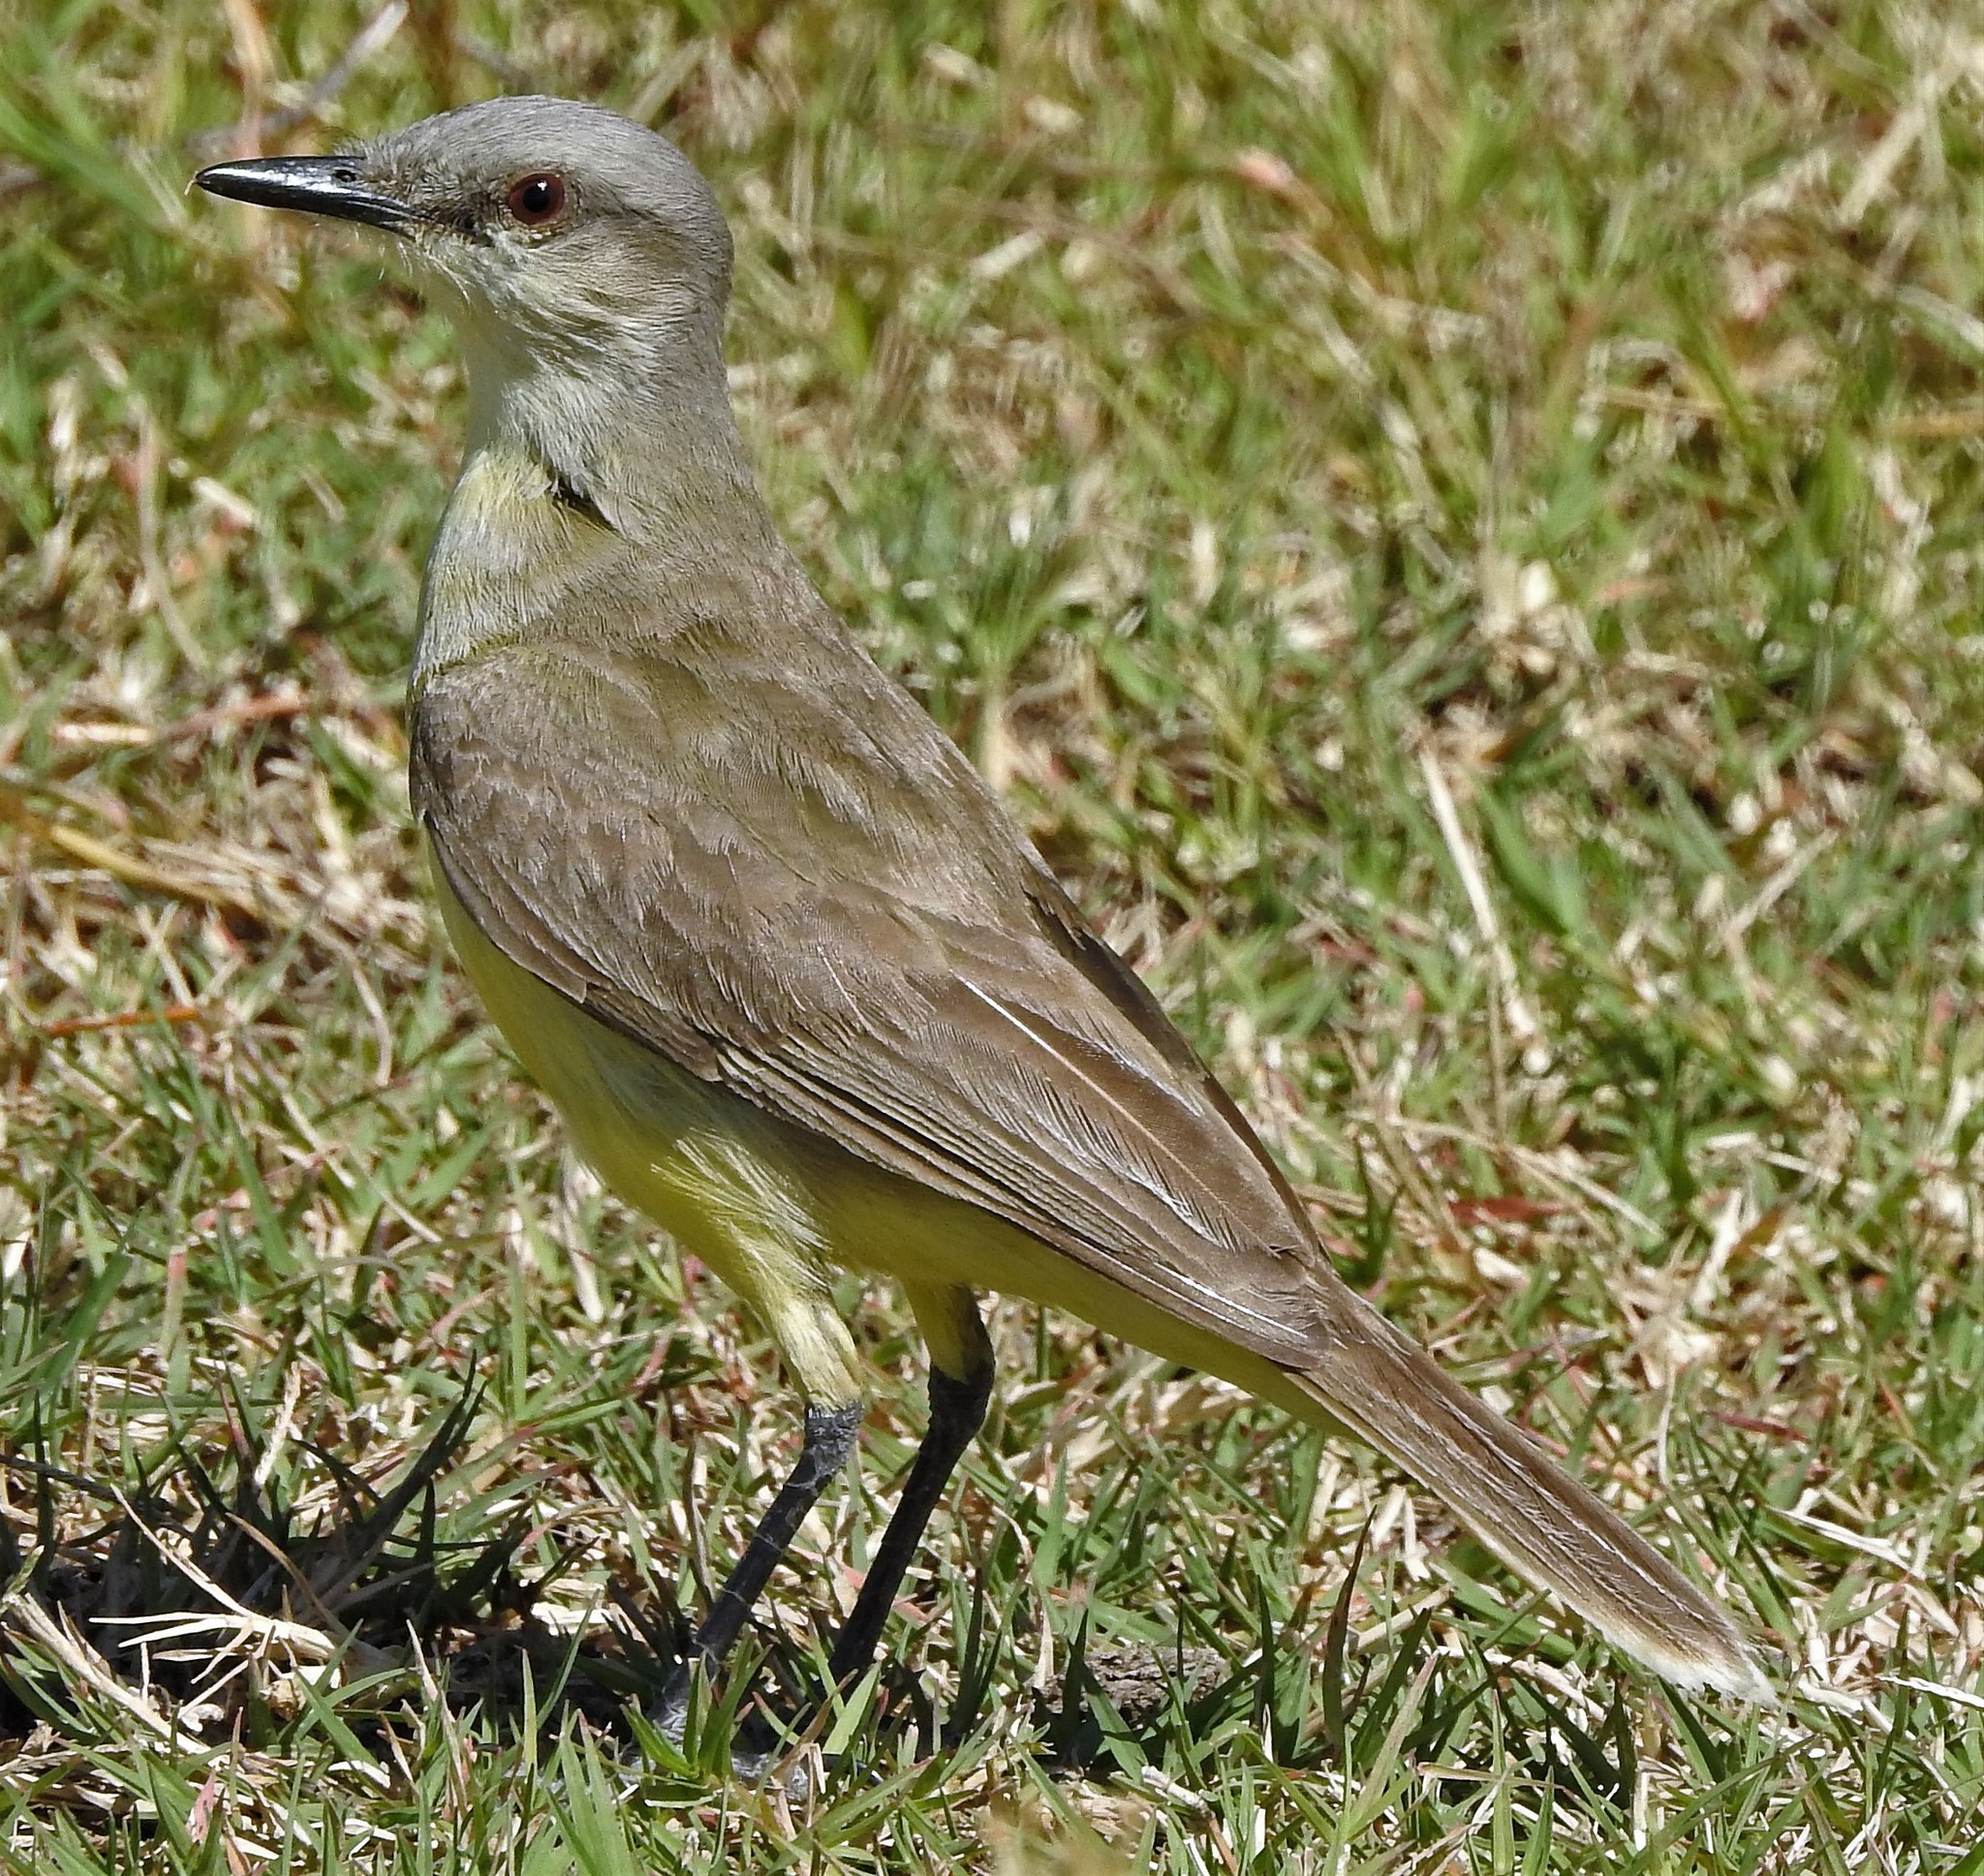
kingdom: Animalia
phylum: Chordata
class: Aves
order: Passeriformes
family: Tyrannidae
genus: Machetornis
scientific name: Machetornis rixosa
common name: Cattle tyrant
